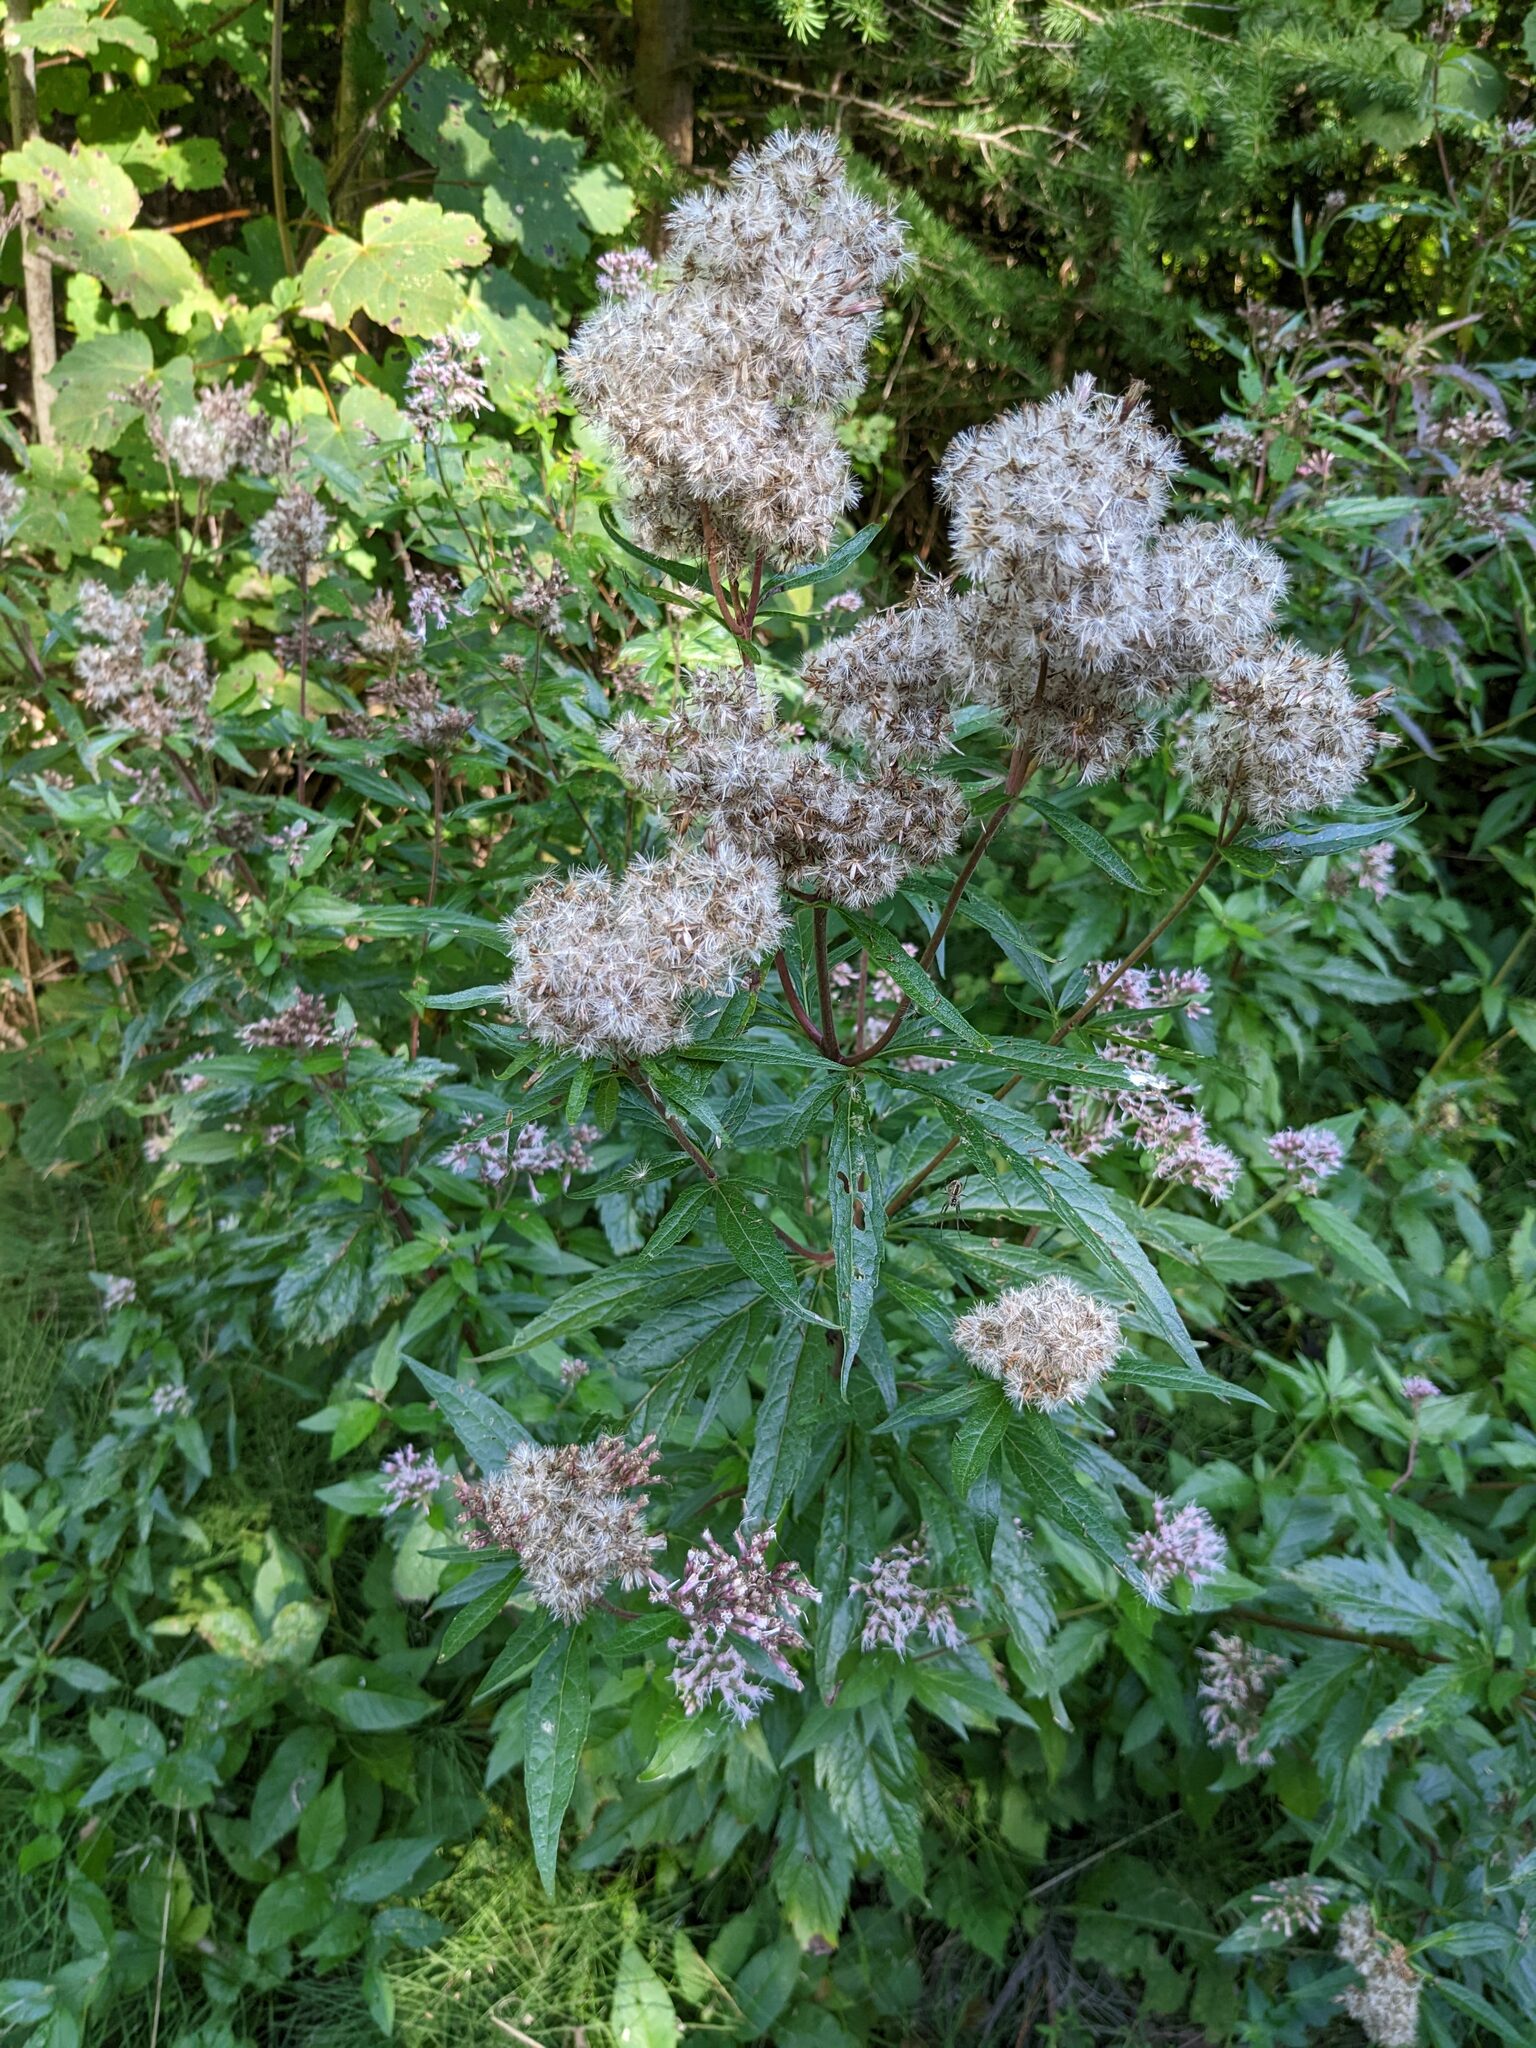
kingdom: Plantae
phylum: Tracheophyta
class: Magnoliopsida
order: Asterales
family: Asteraceae
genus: Eupatorium
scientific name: Eupatorium cannabinum
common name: Hemp-agrimony
